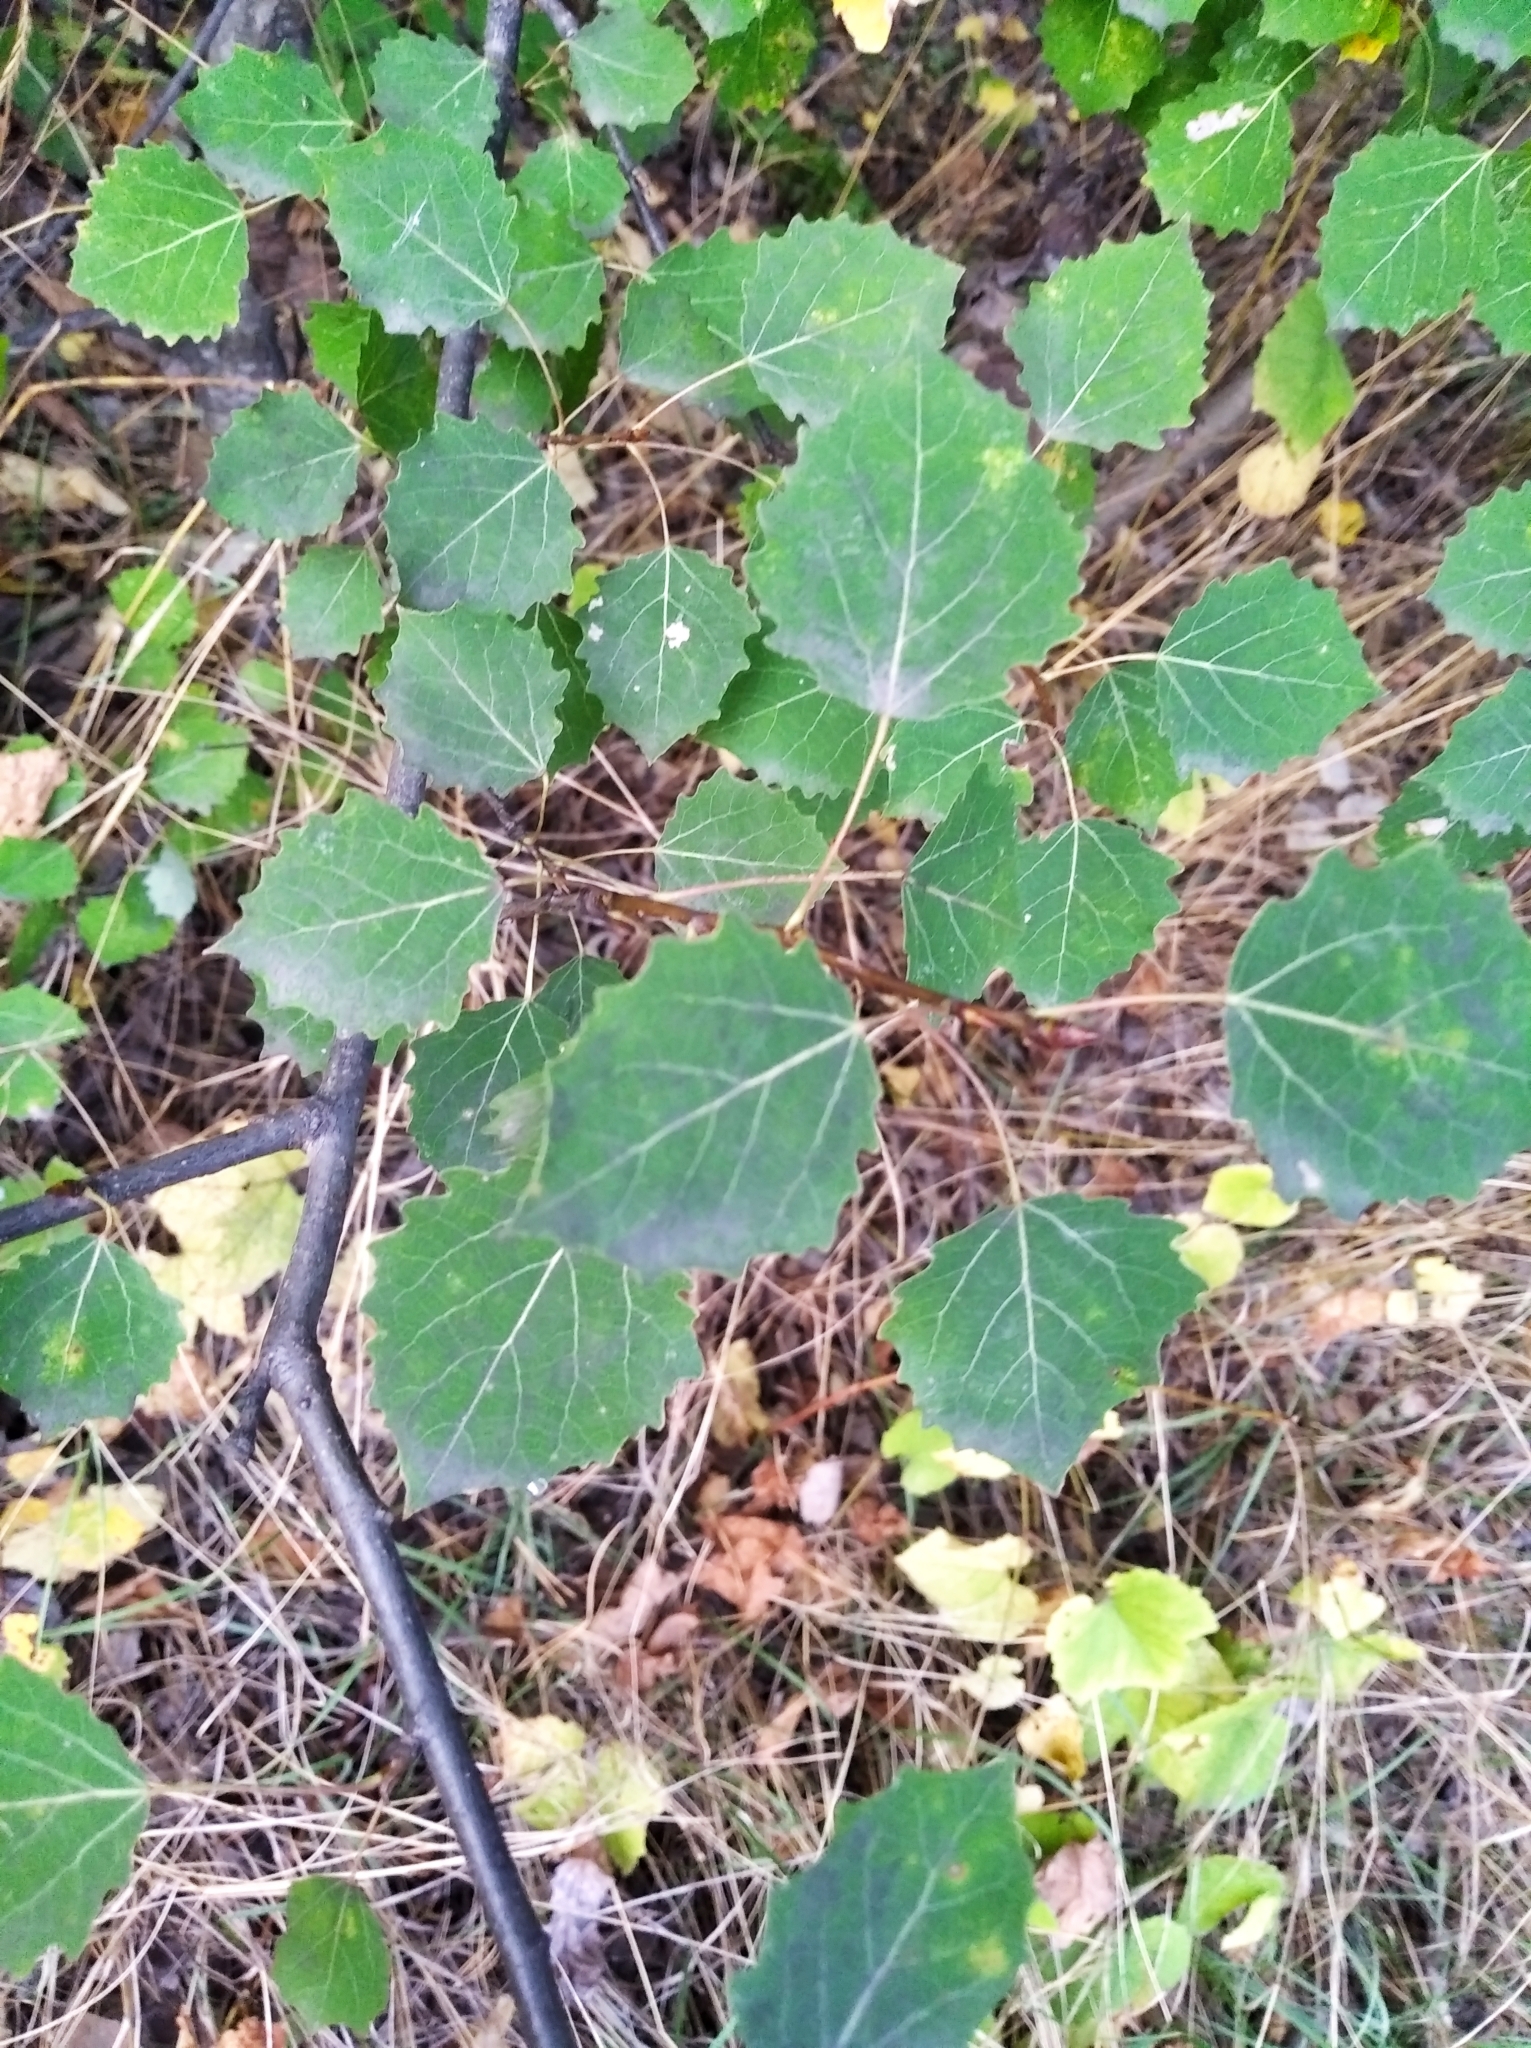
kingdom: Plantae
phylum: Tracheophyta
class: Magnoliopsida
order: Malpighiales
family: Salicaceae
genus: Populus
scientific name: Populus tremula
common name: European aspen
